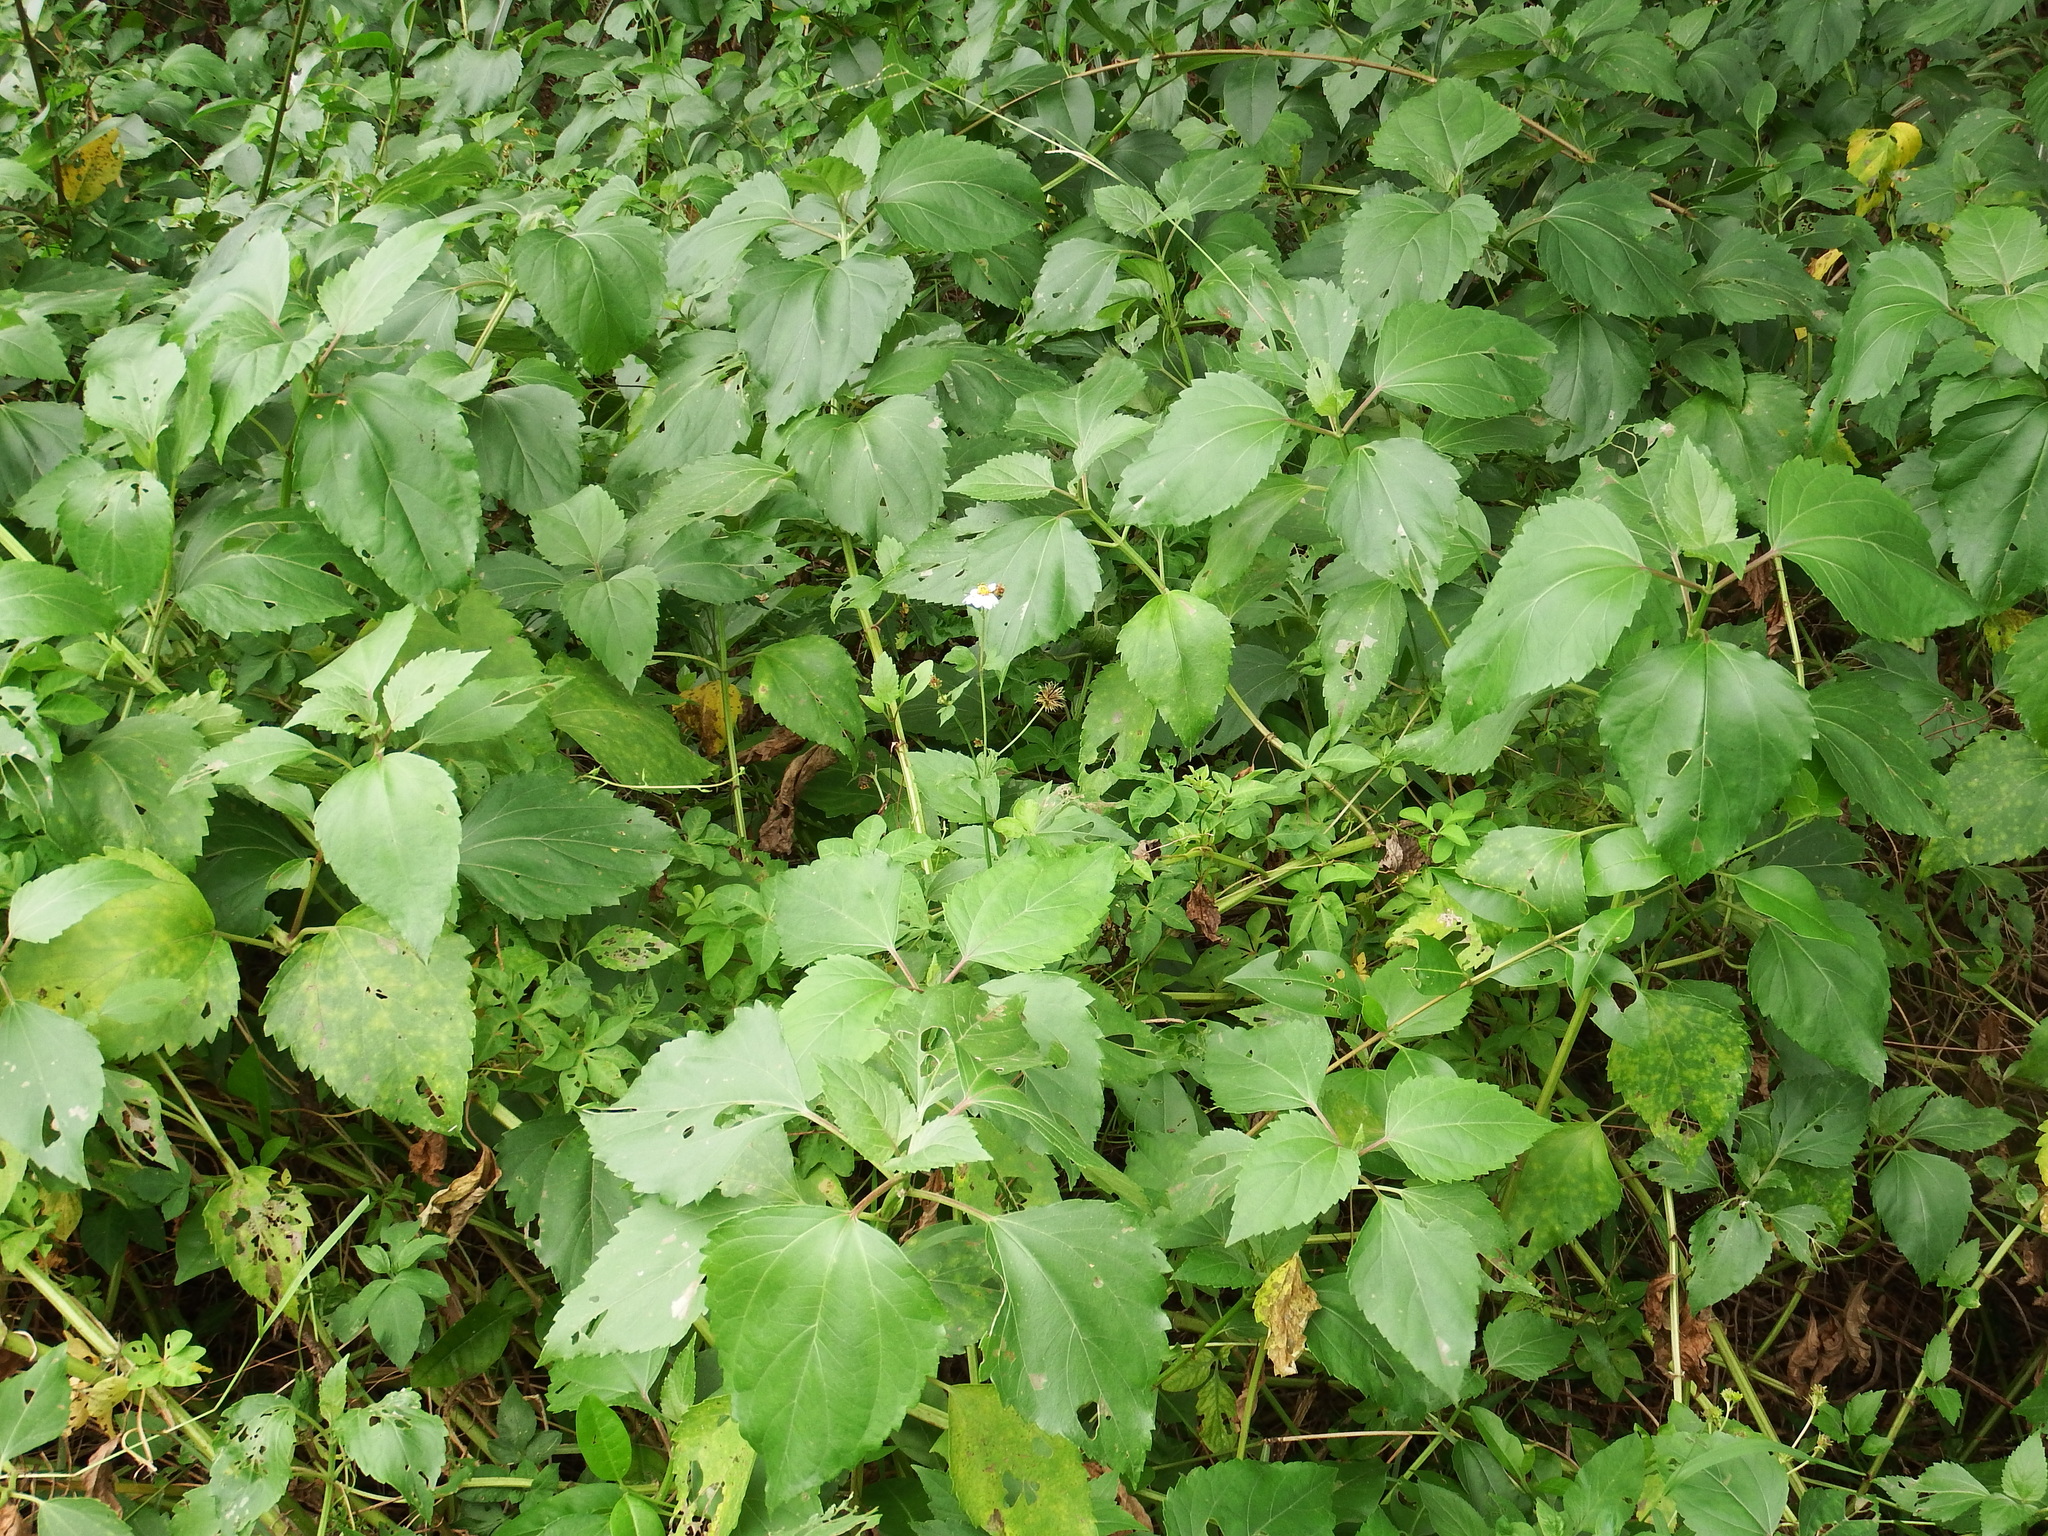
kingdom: Plantae
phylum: Tracheophyta
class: Magnoliopsida
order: Asterales
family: Asteraceae
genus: Wollastonia
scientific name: Wollastonia biflora
